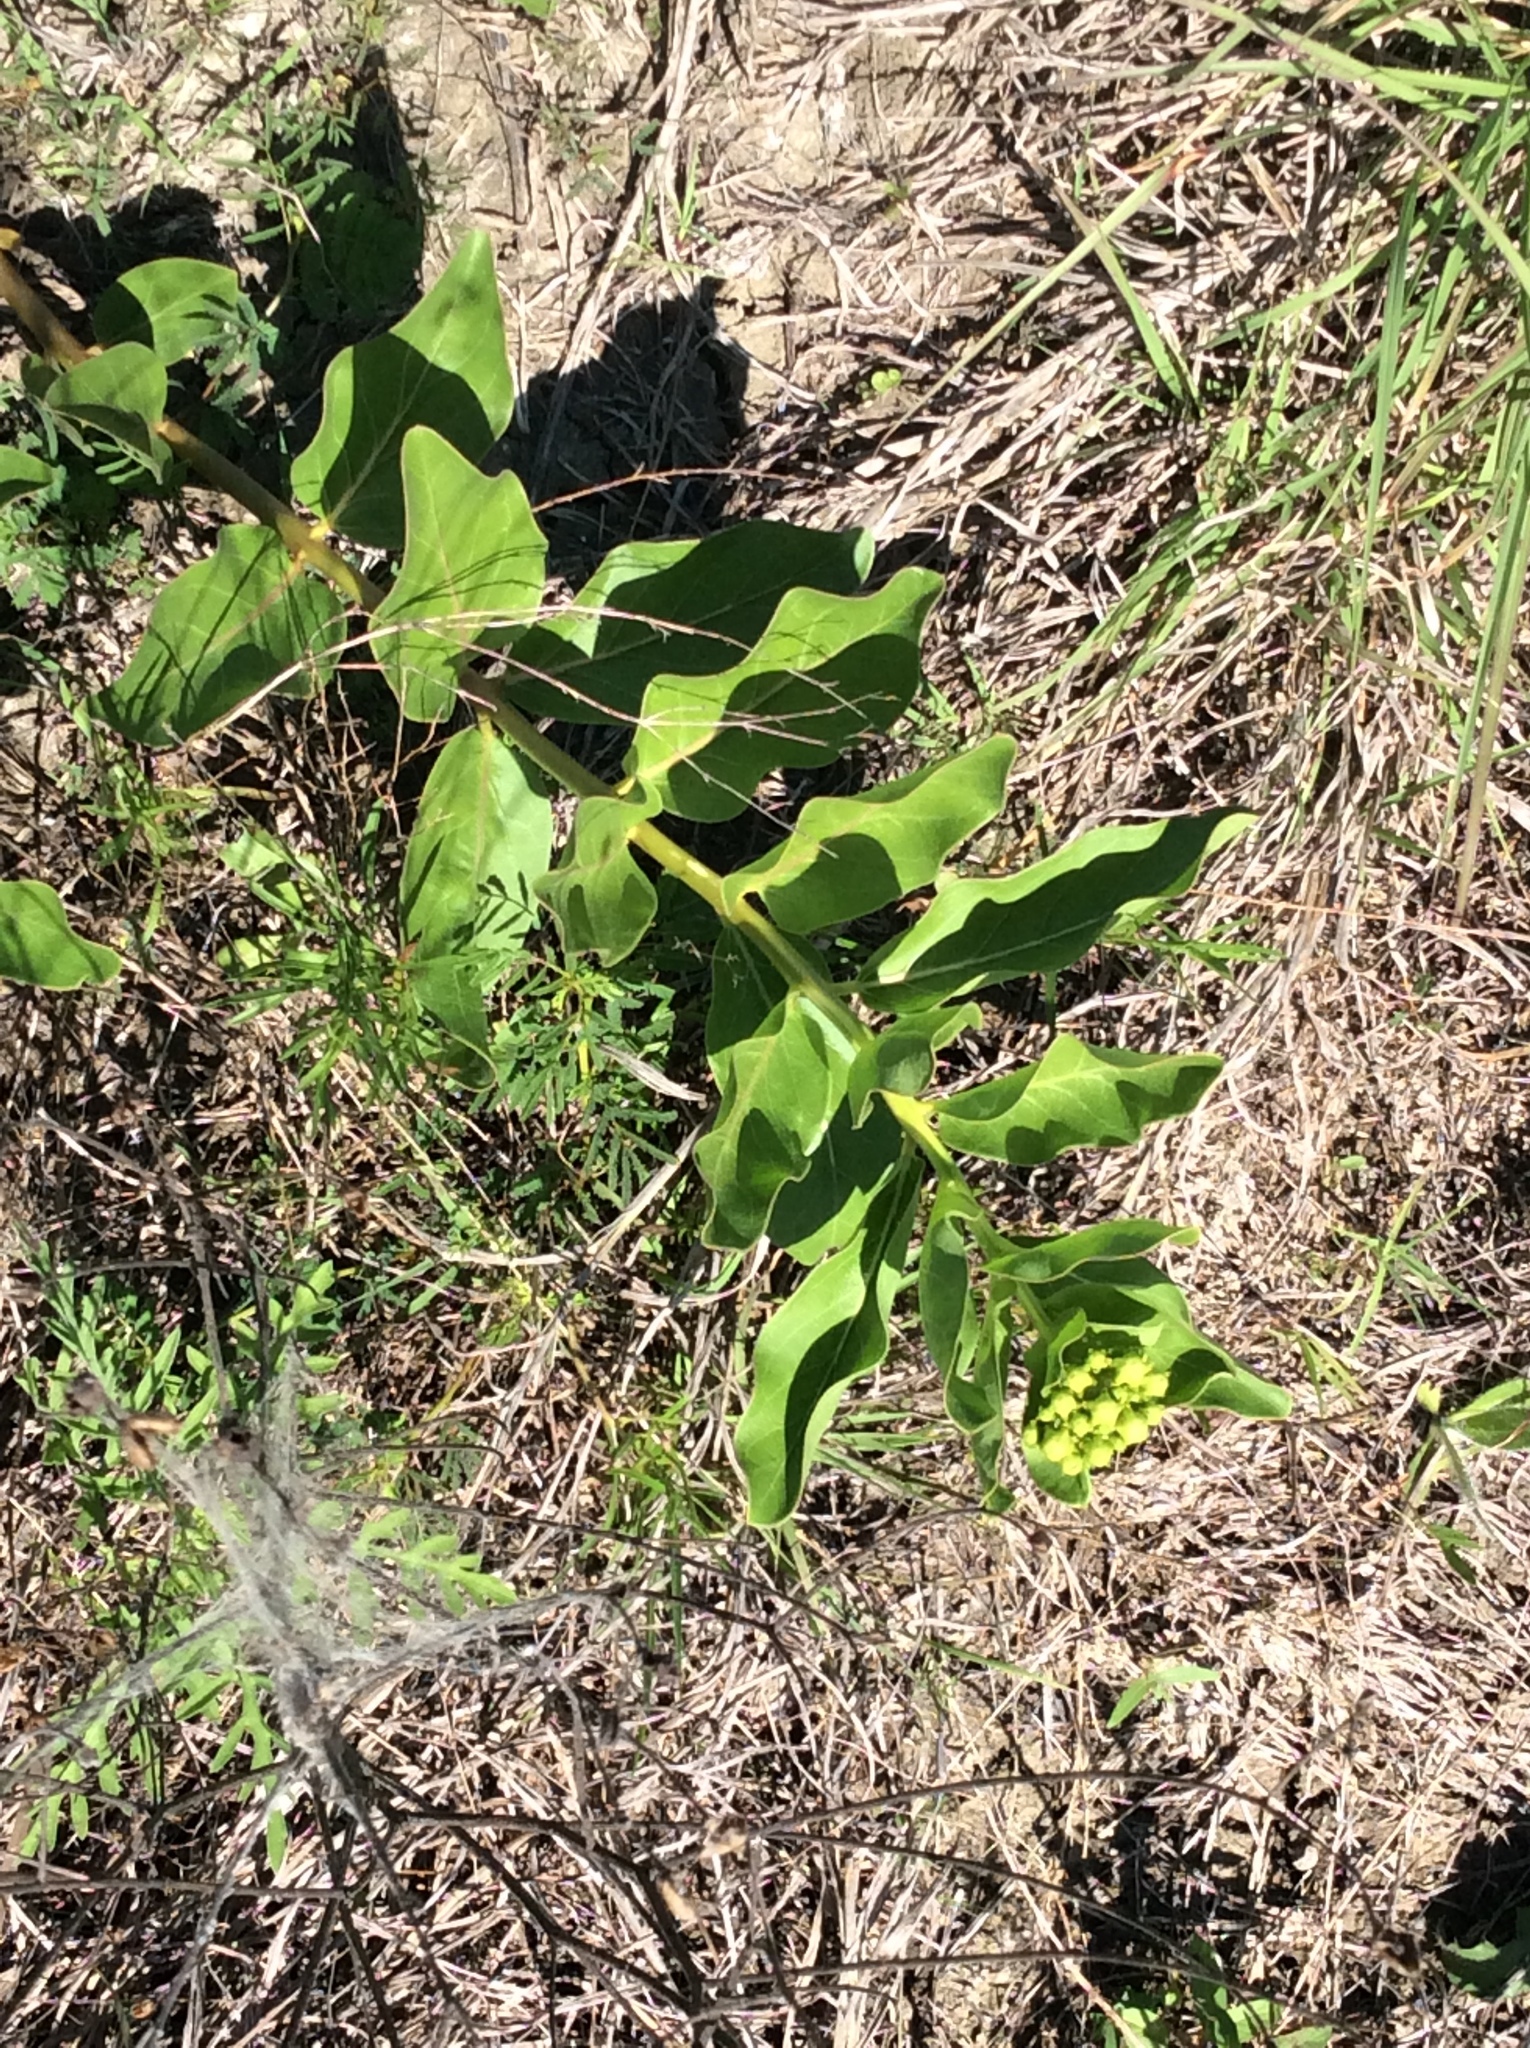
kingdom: Plantae
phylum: Tracheophyta
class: Magnoliopsida
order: Gentianales
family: Apocynaceae
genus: Asclepias
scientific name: Asclepias viridis
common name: Antelope-horns
